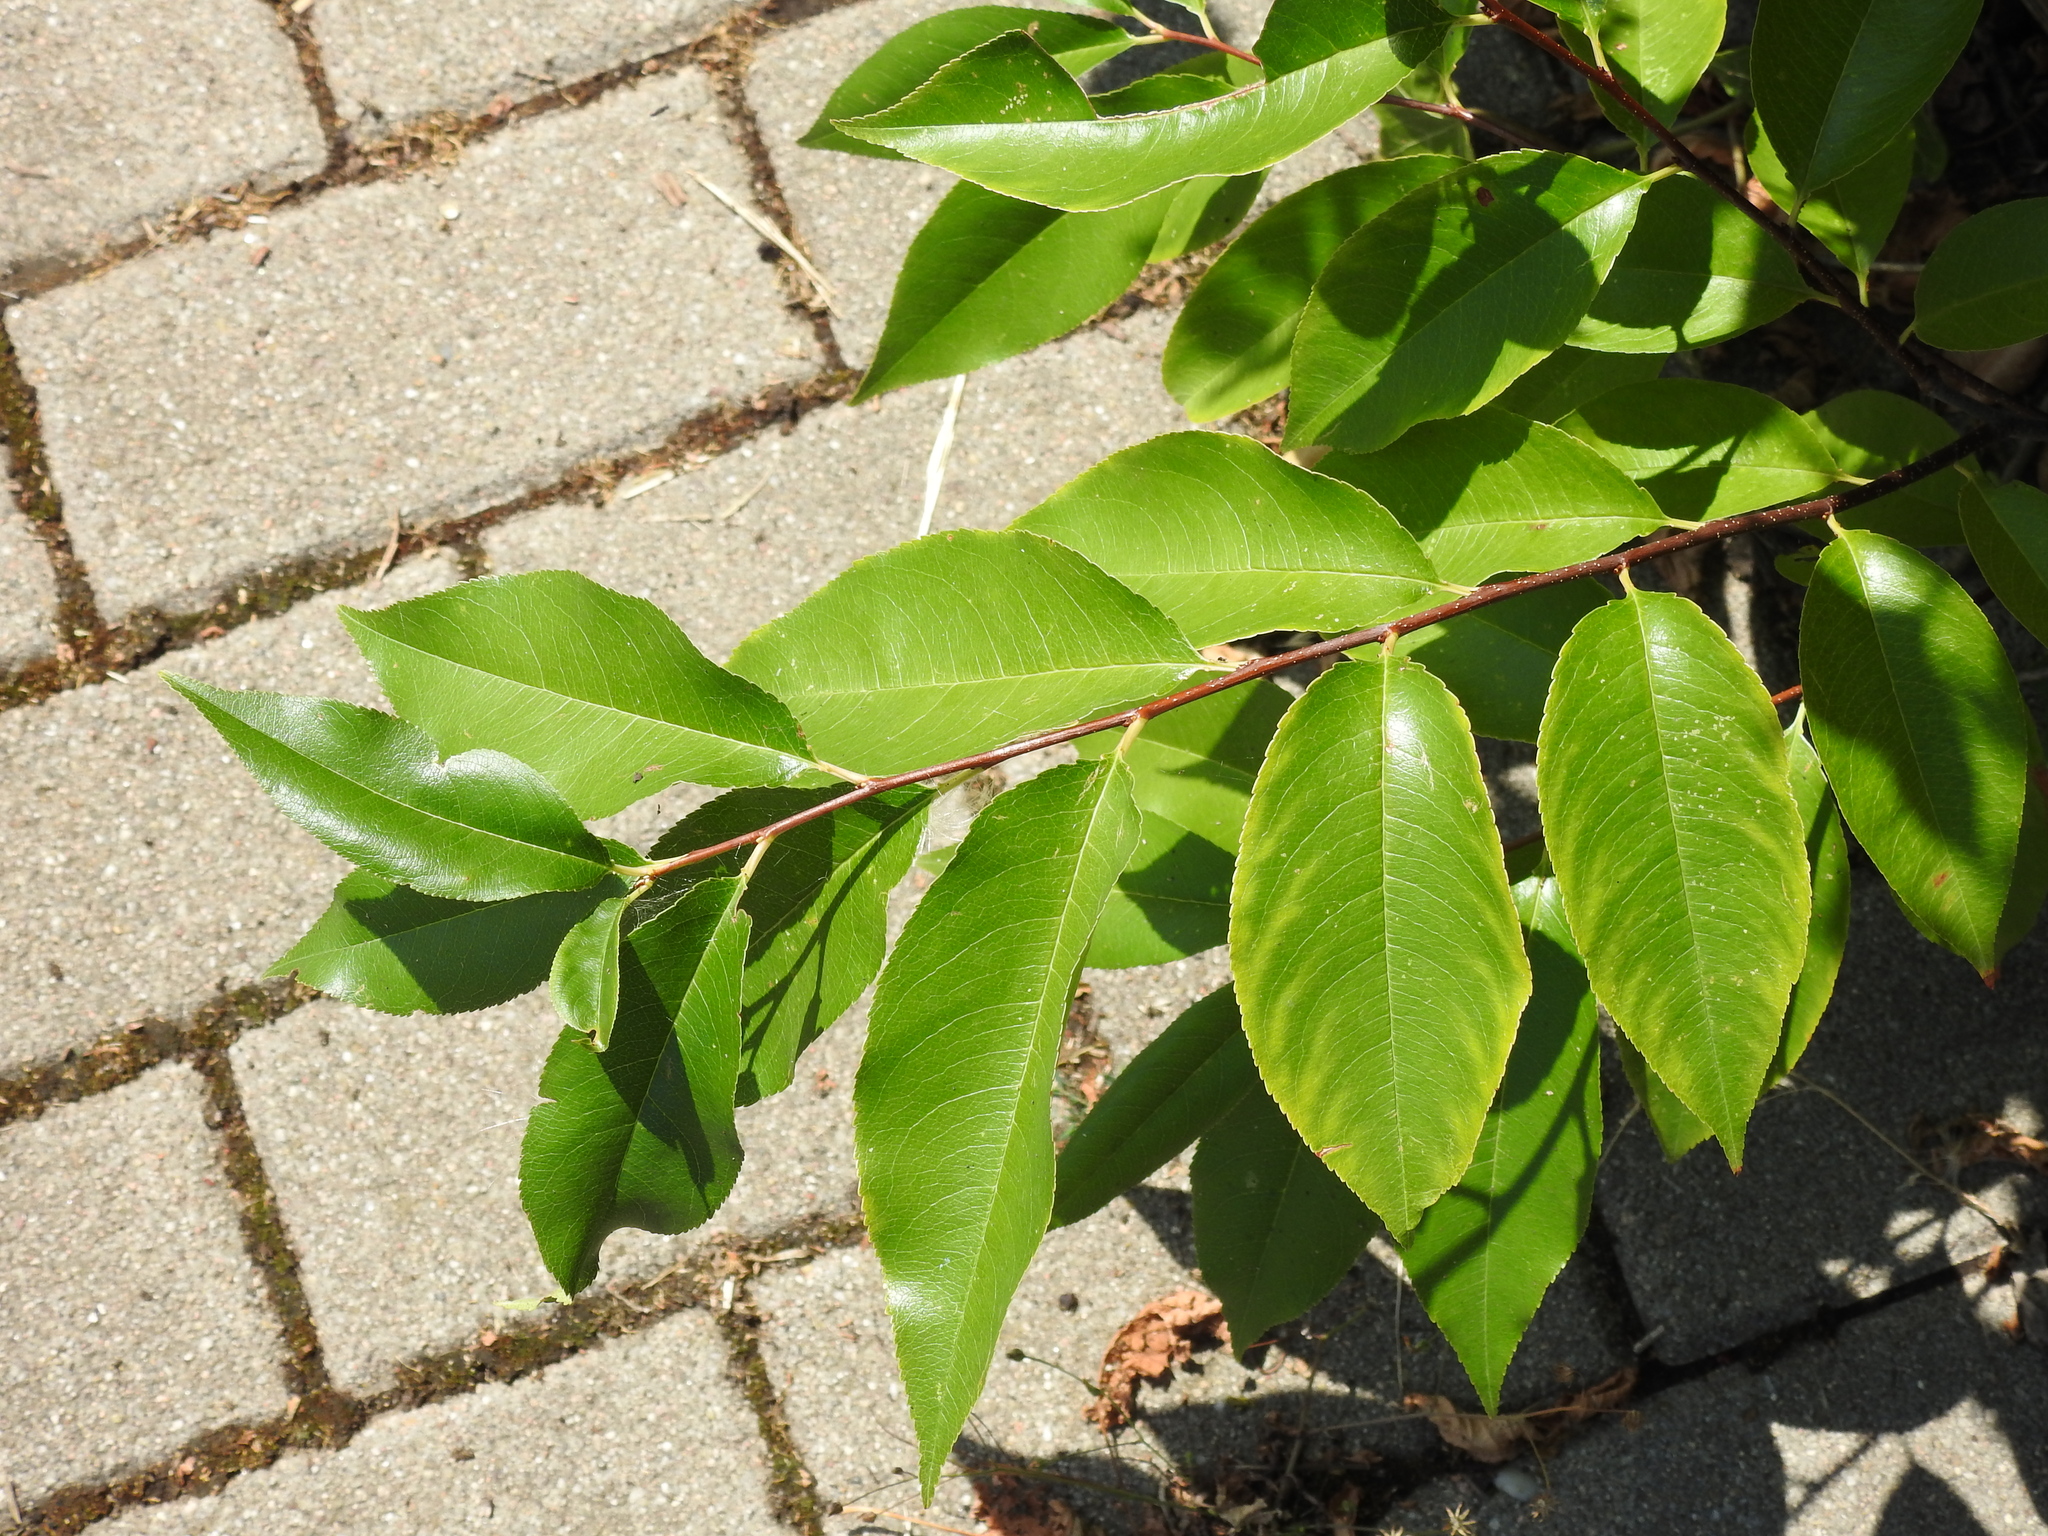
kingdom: Plantae
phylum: Tracheophyta
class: Magnoliopsida
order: Rosales
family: Rosaceae
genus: Prunus
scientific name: Prunus serotina
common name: Black cherry
